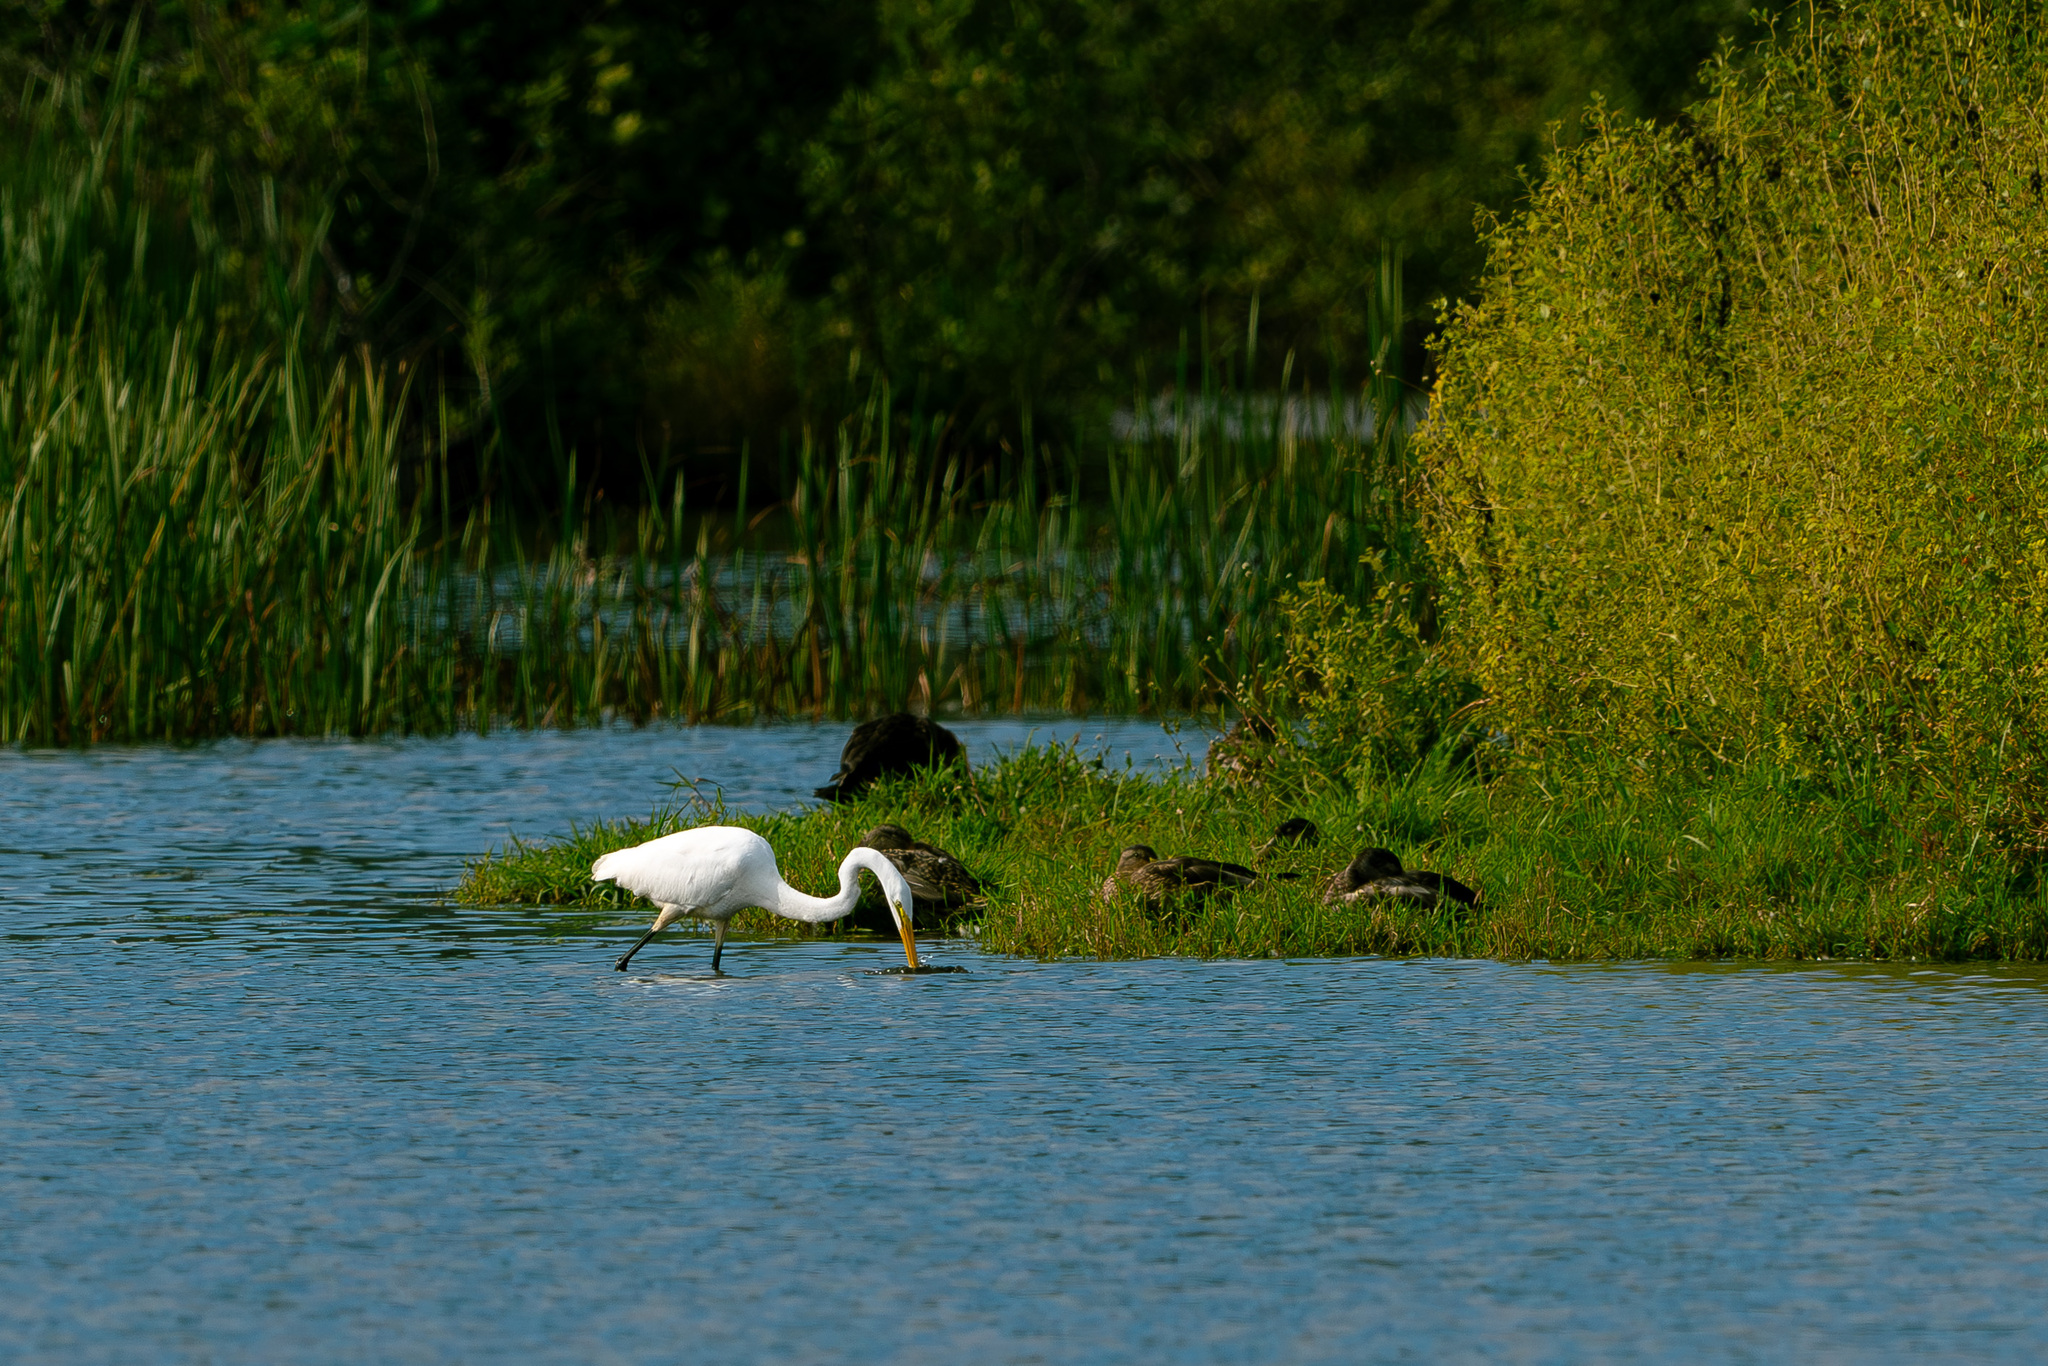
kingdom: Animalia
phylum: Chordata
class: Aves
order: Pelecaniformes
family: Ardeidae
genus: Ardea
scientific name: Ardea alba
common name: Great egret
